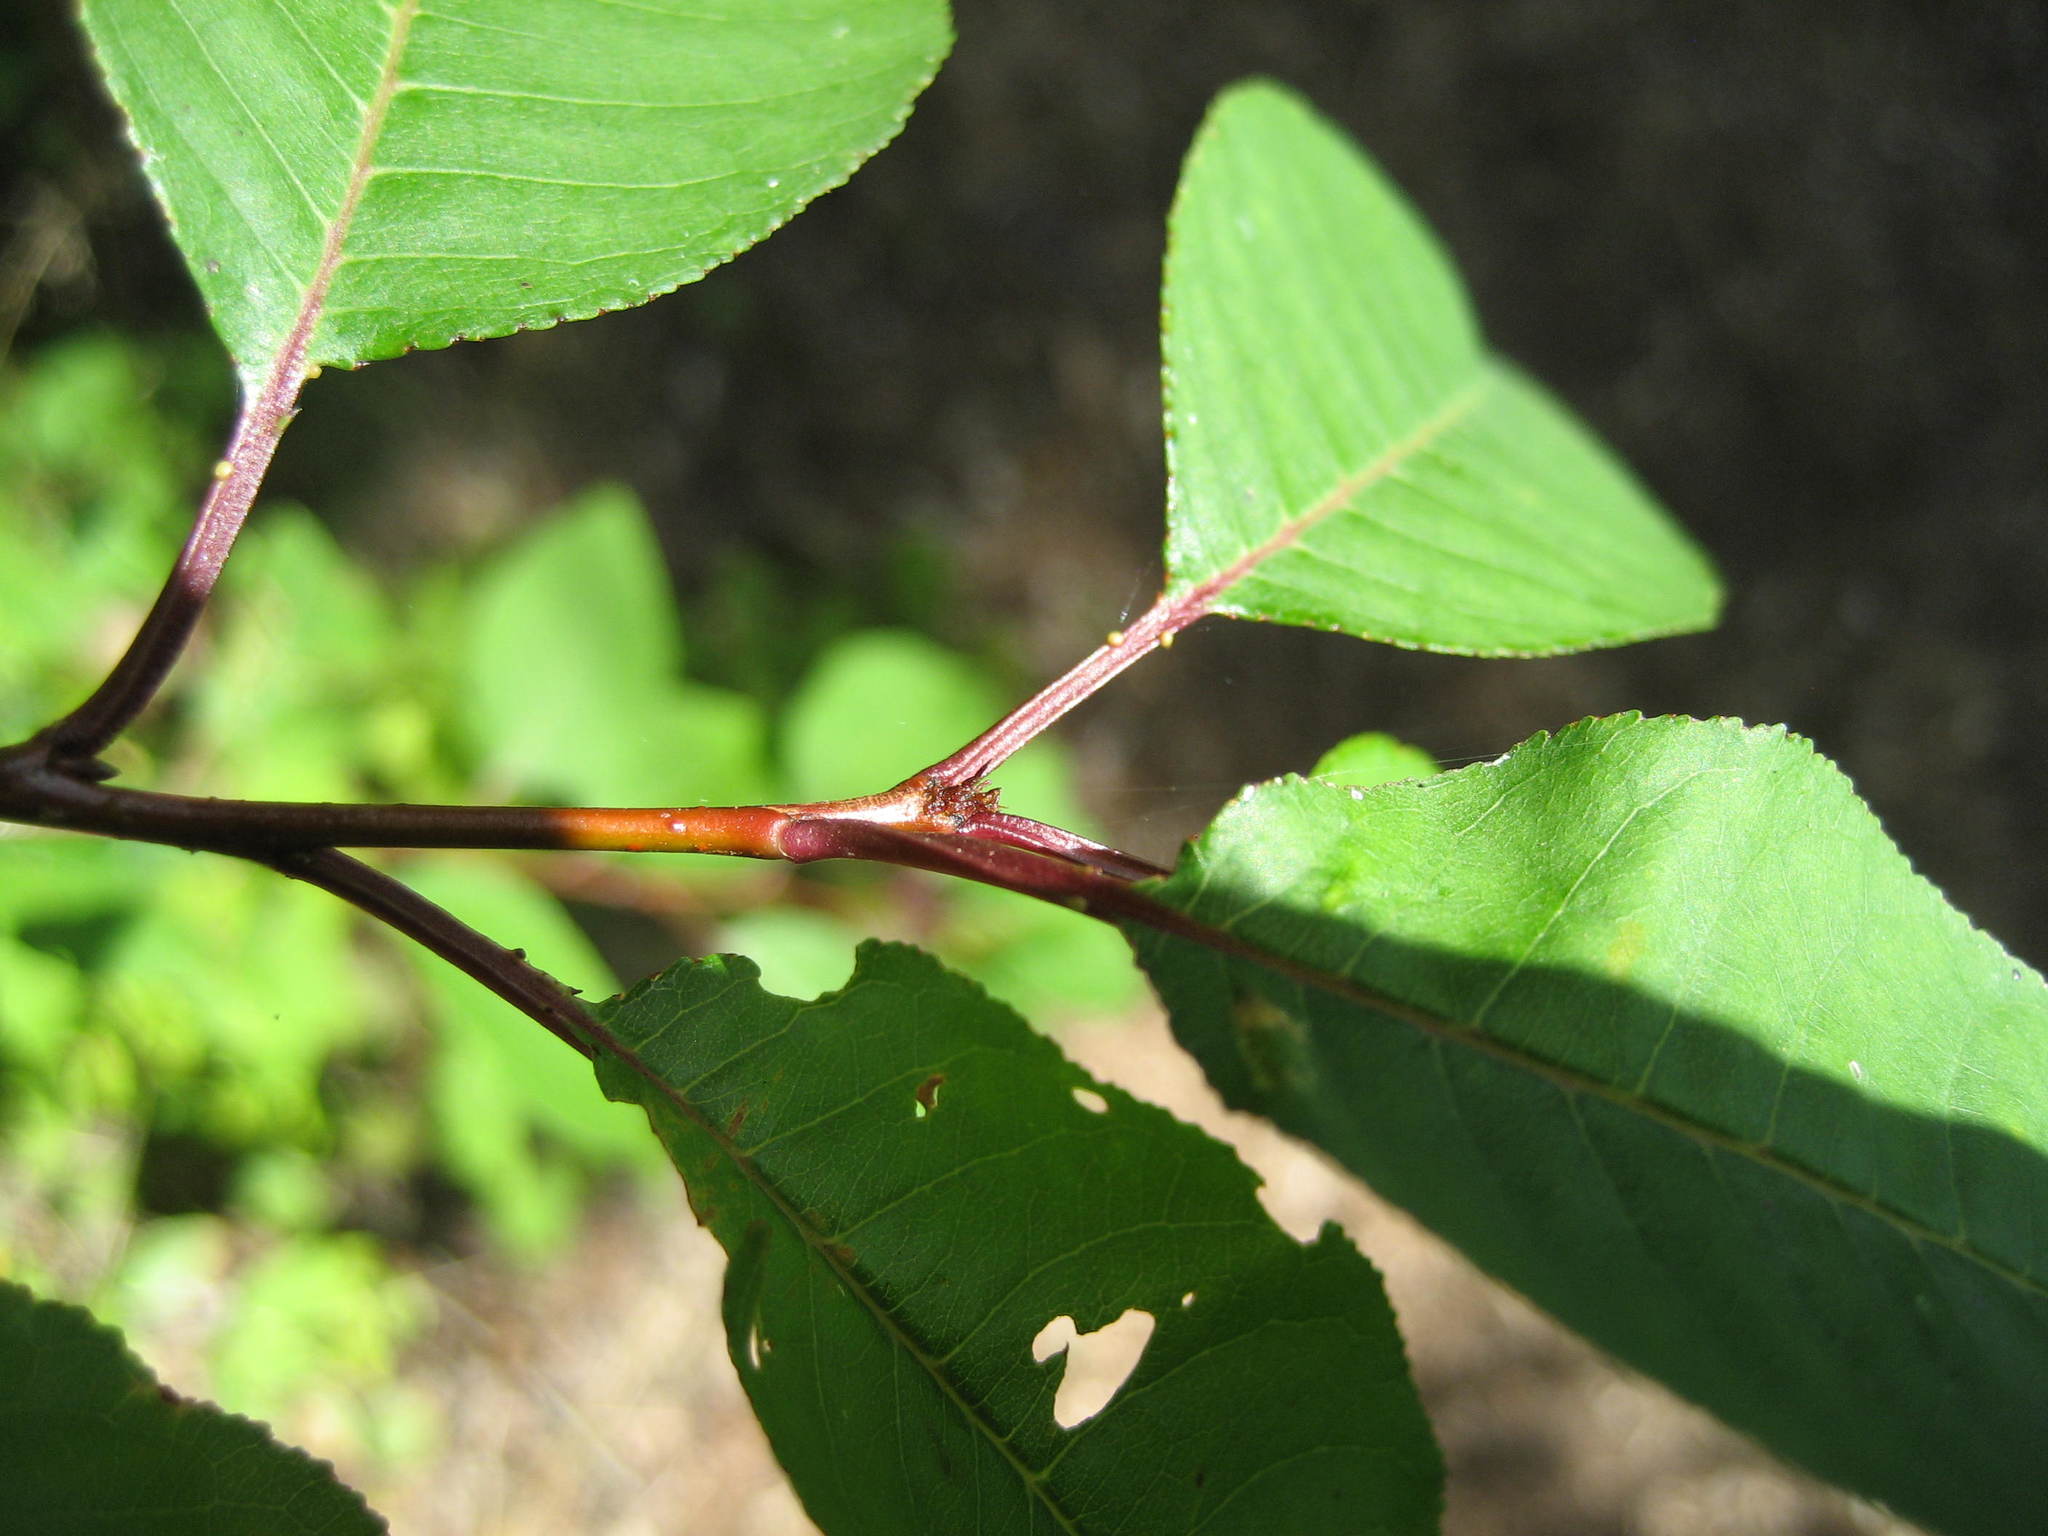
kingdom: Plantae
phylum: Tracheophyta
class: Magnoliopsida
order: Rosales
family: Rosaceae
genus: Prunus
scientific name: Prunus pensylvanica
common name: Pin cherry
